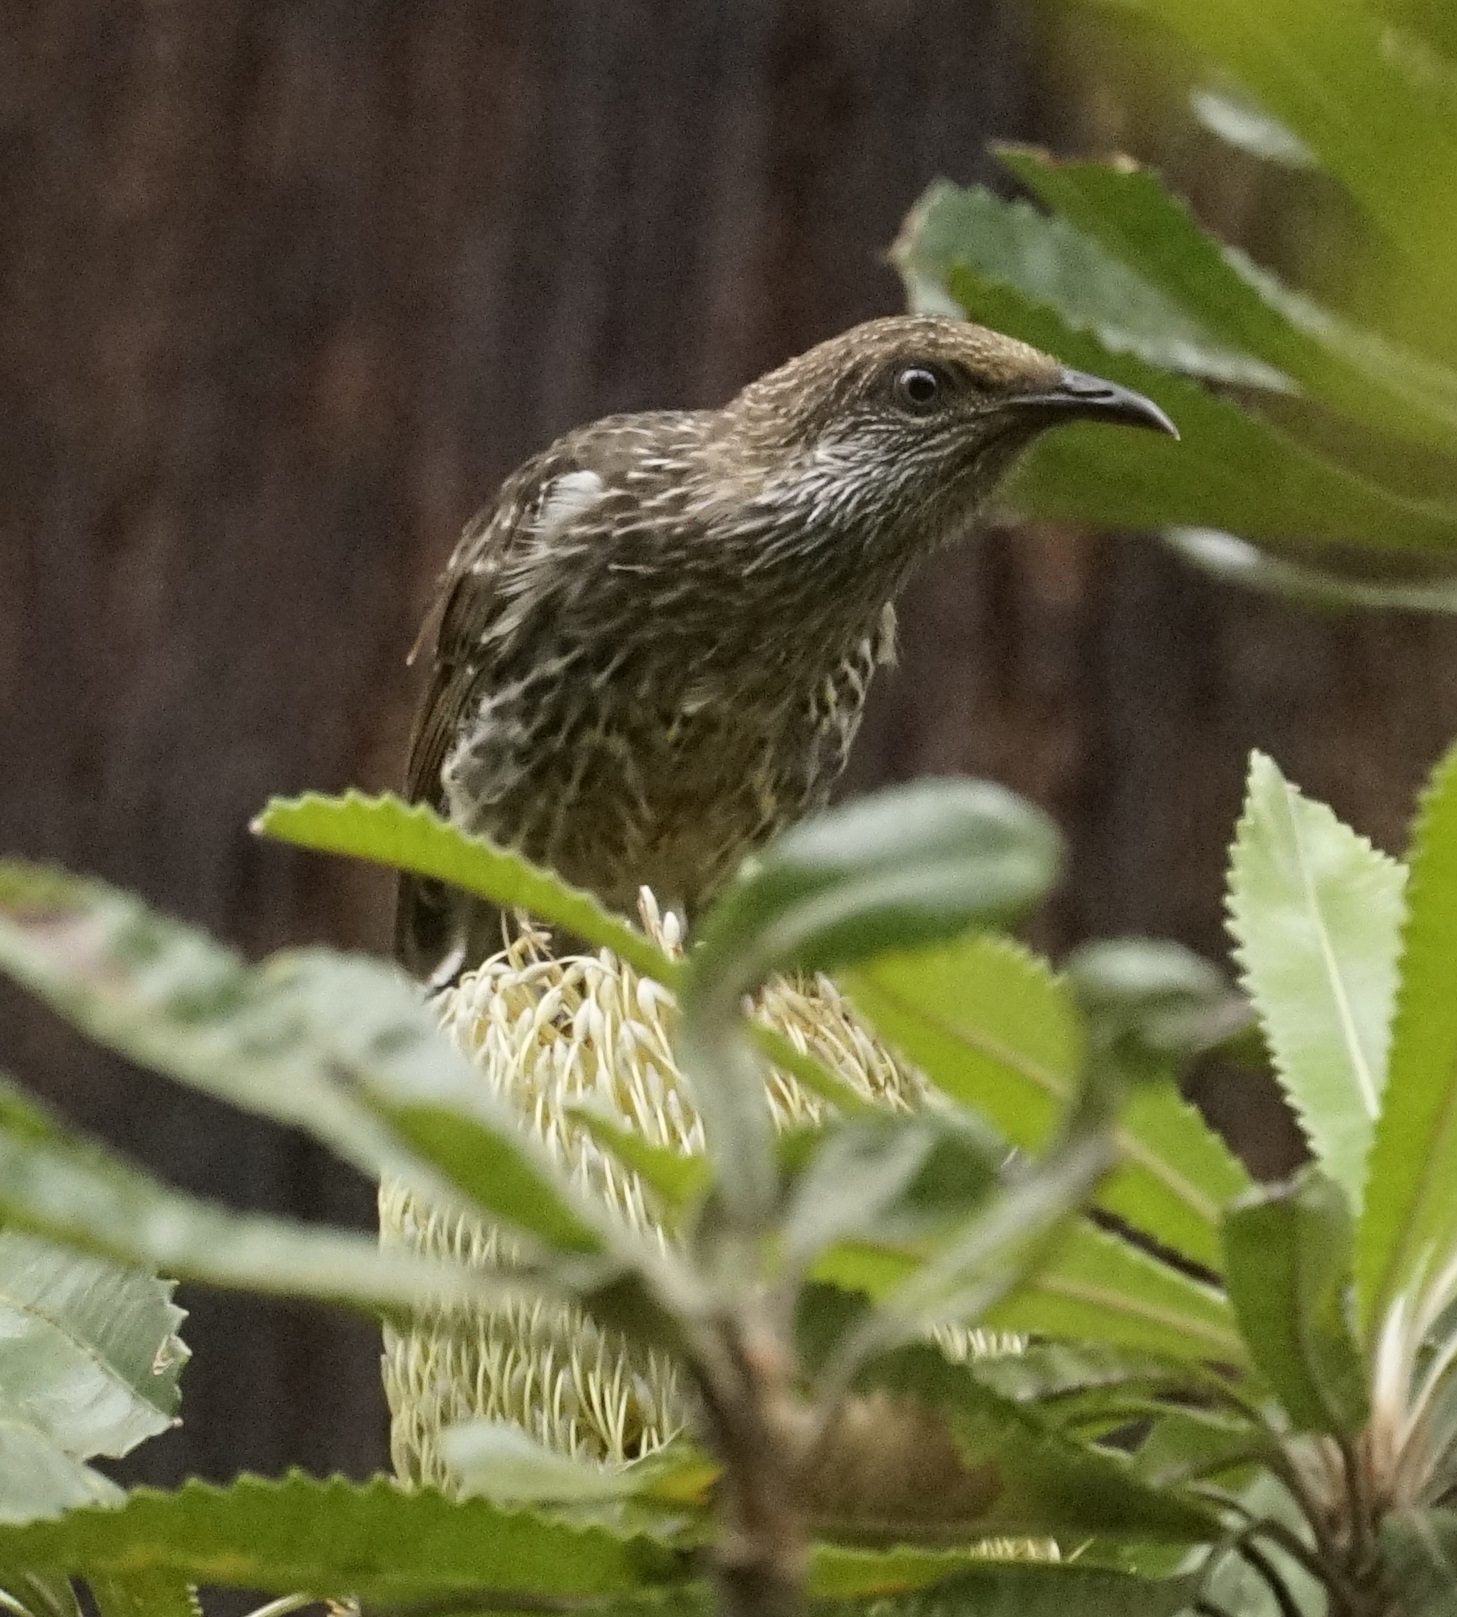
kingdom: Animalia
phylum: Chordata
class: Aves
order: Passeriformes
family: Meliphagidae
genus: Anthochaera
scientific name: Anthochaera chrysoptera
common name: Little wattlebird
